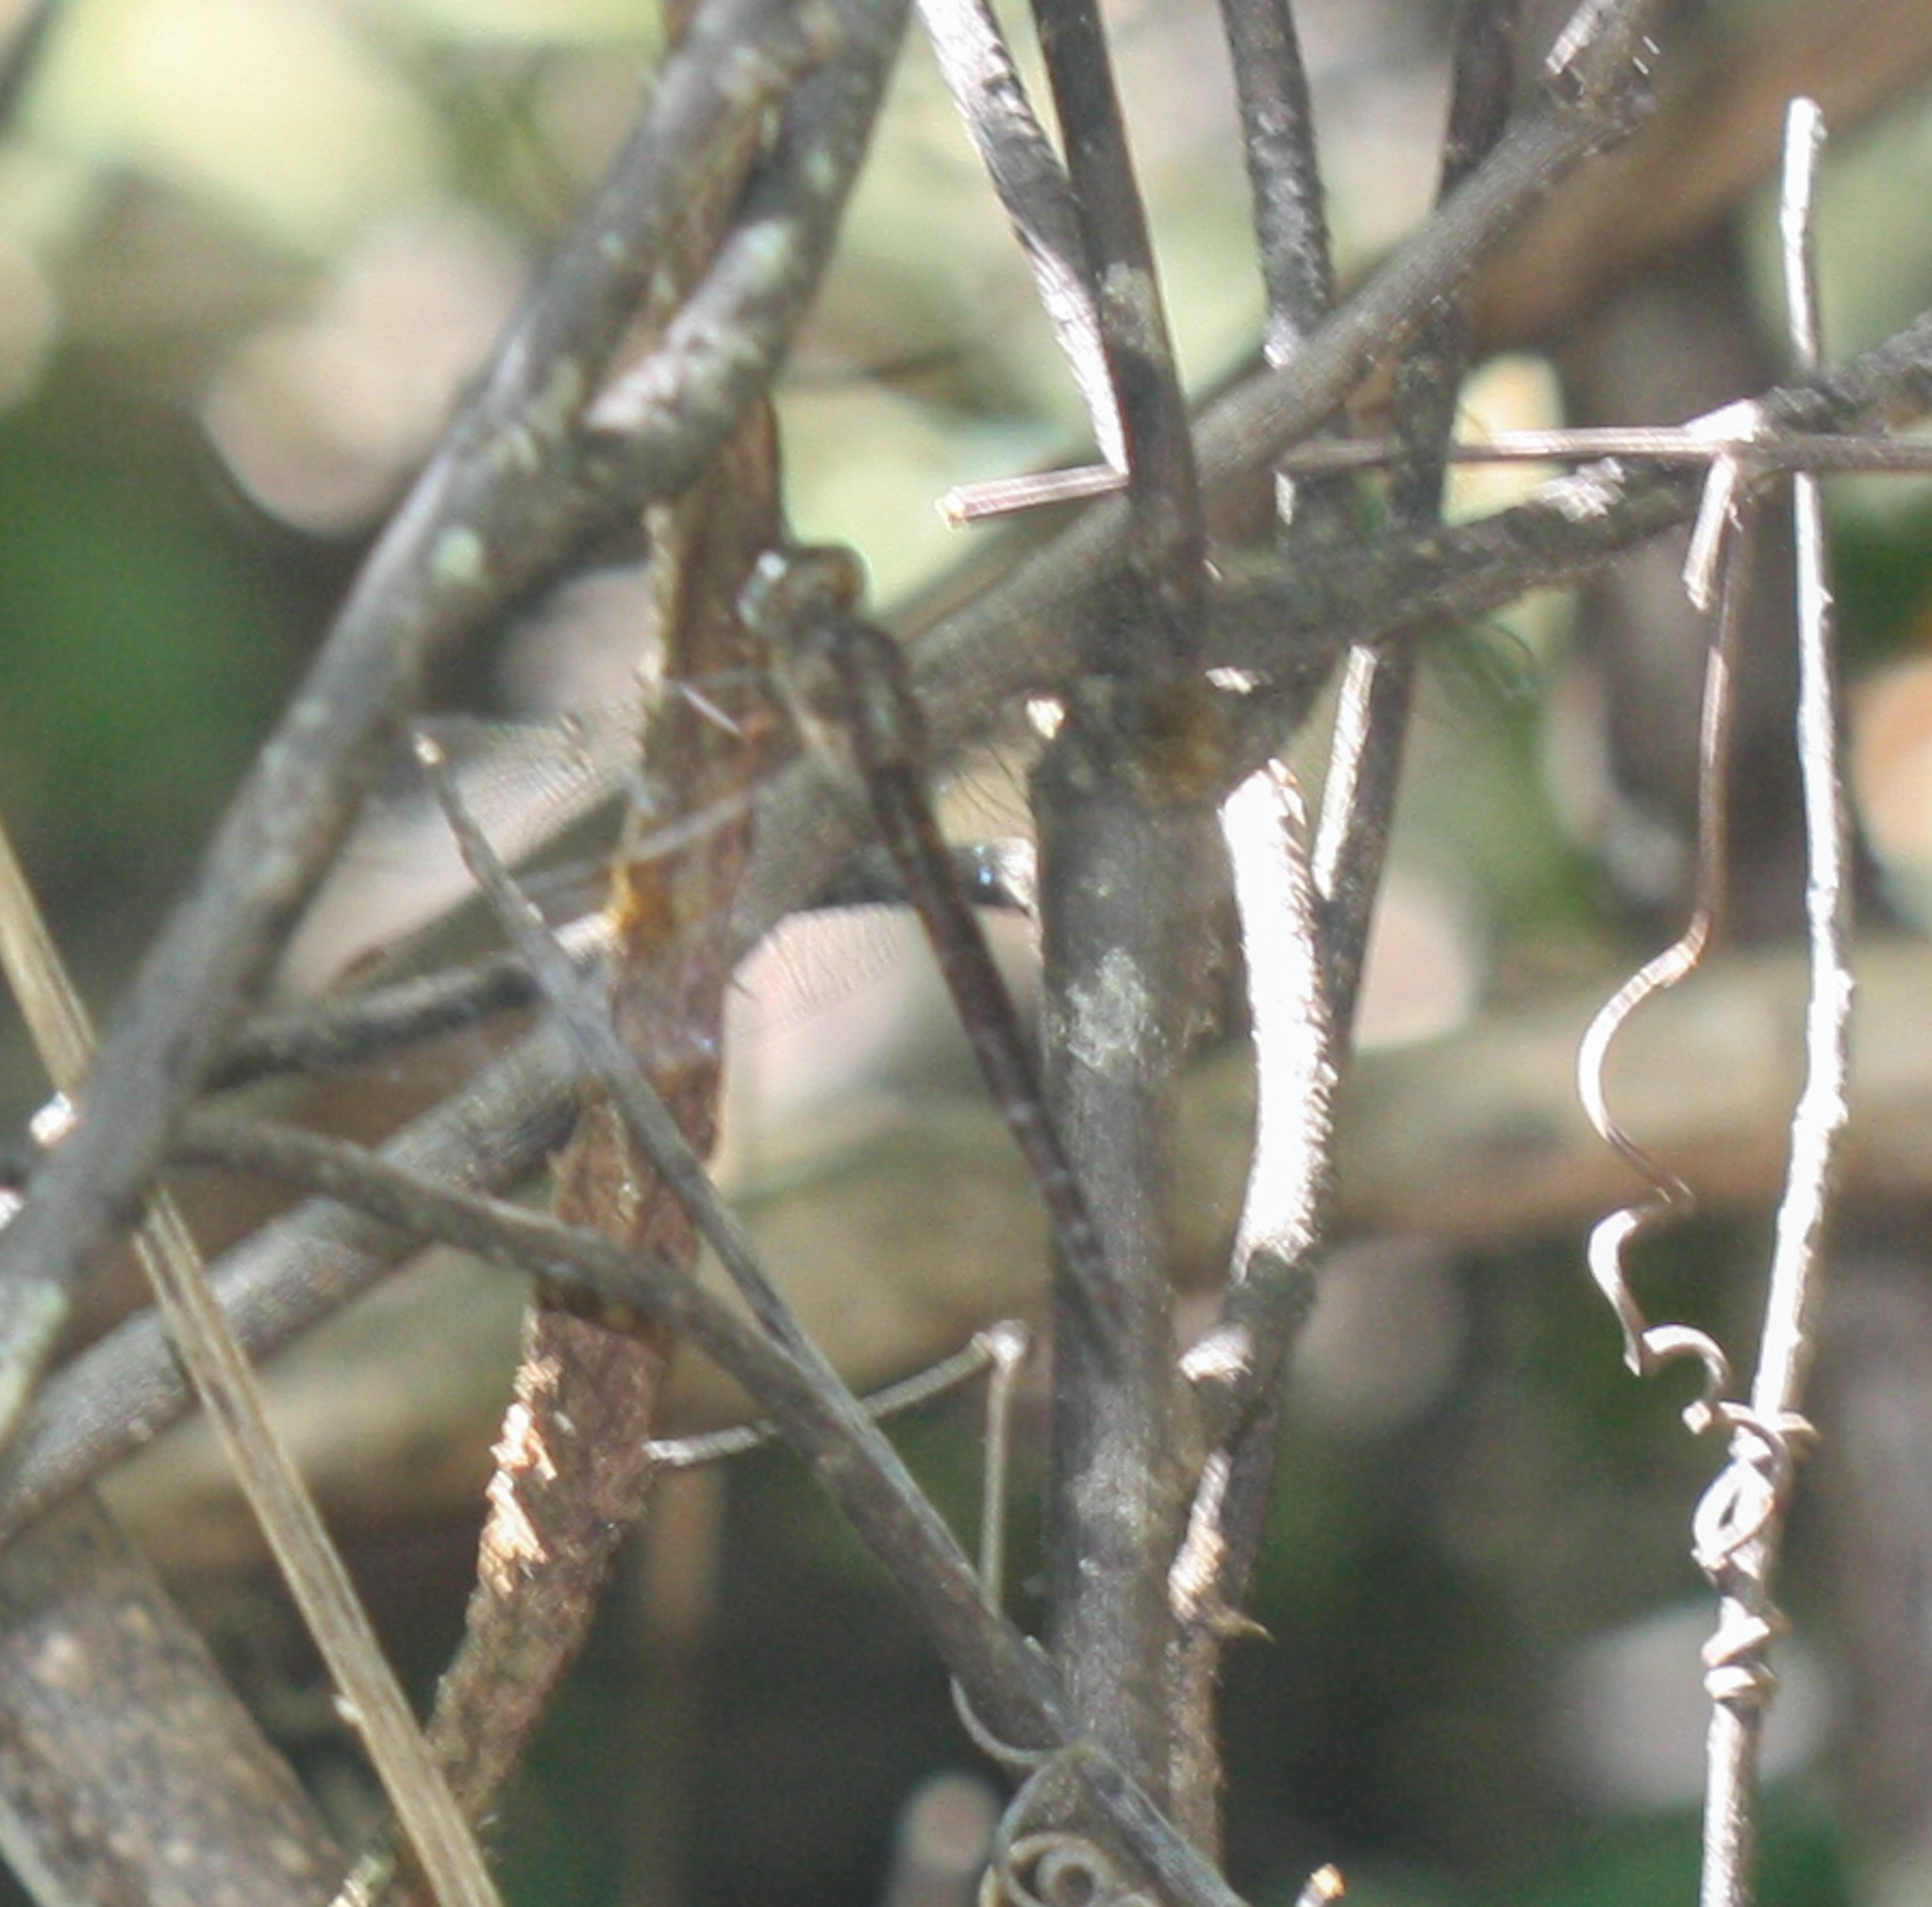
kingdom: Animalia
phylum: Arthropoda
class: Insecta
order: Odonata
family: Libellulidae
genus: Tholymis
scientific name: Tholymis citrina
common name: Evening skimmer
